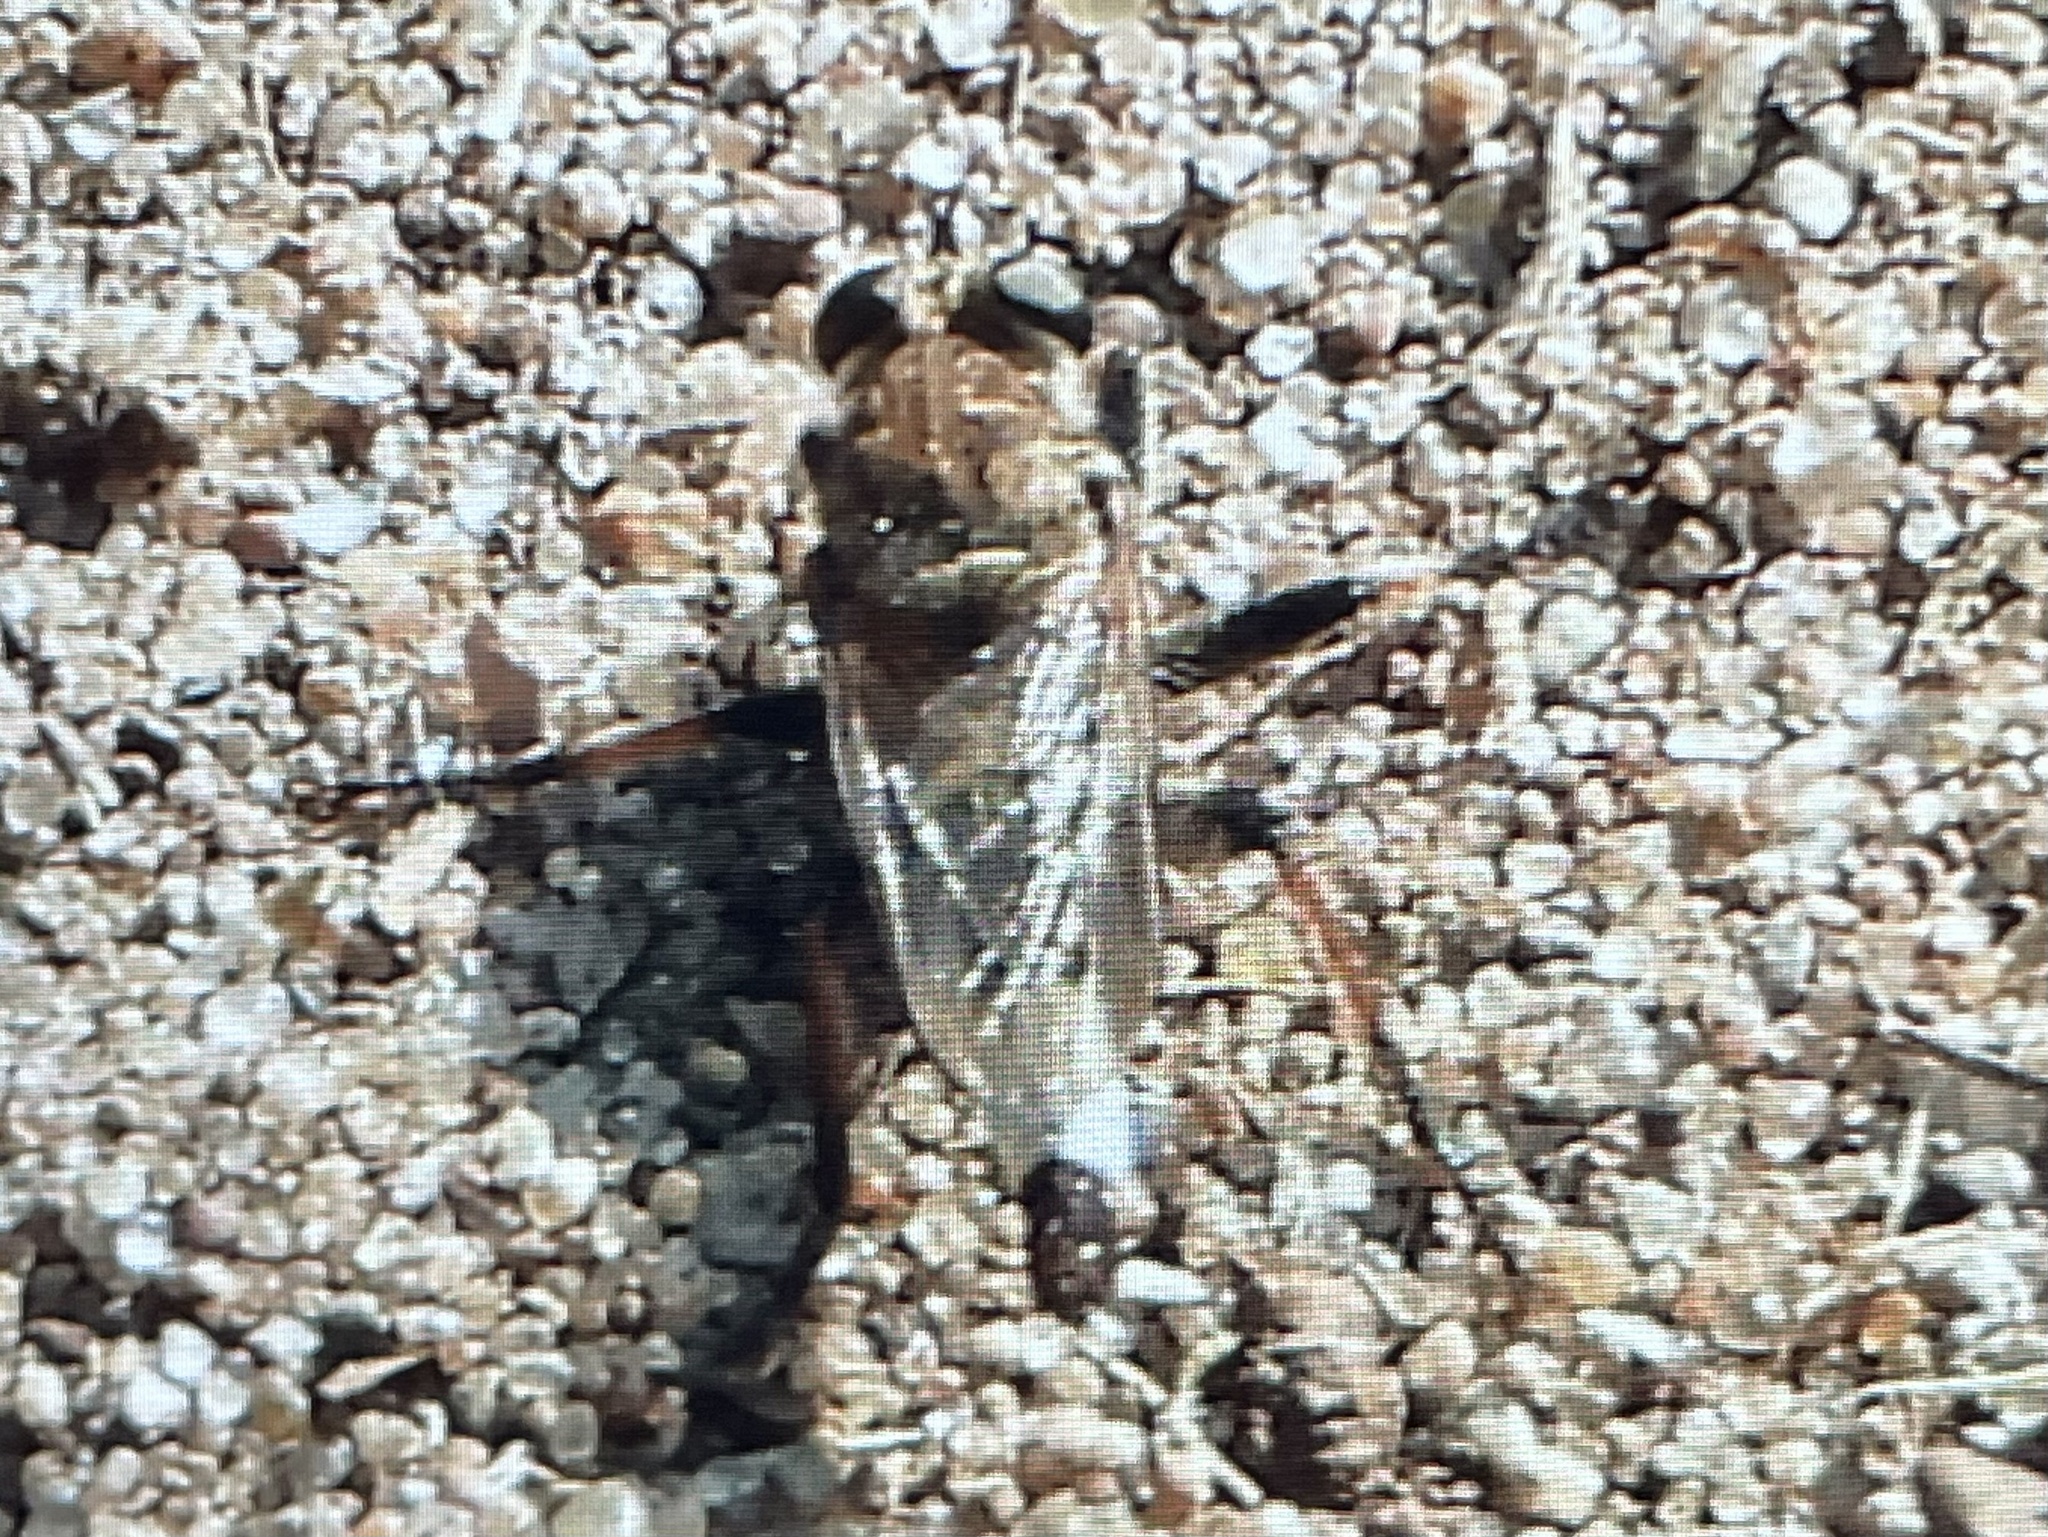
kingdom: Animalia
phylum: Arthropoda
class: Insecta
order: Diptera
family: Asilidae
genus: Efferia
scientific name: Efferia albibarbis
